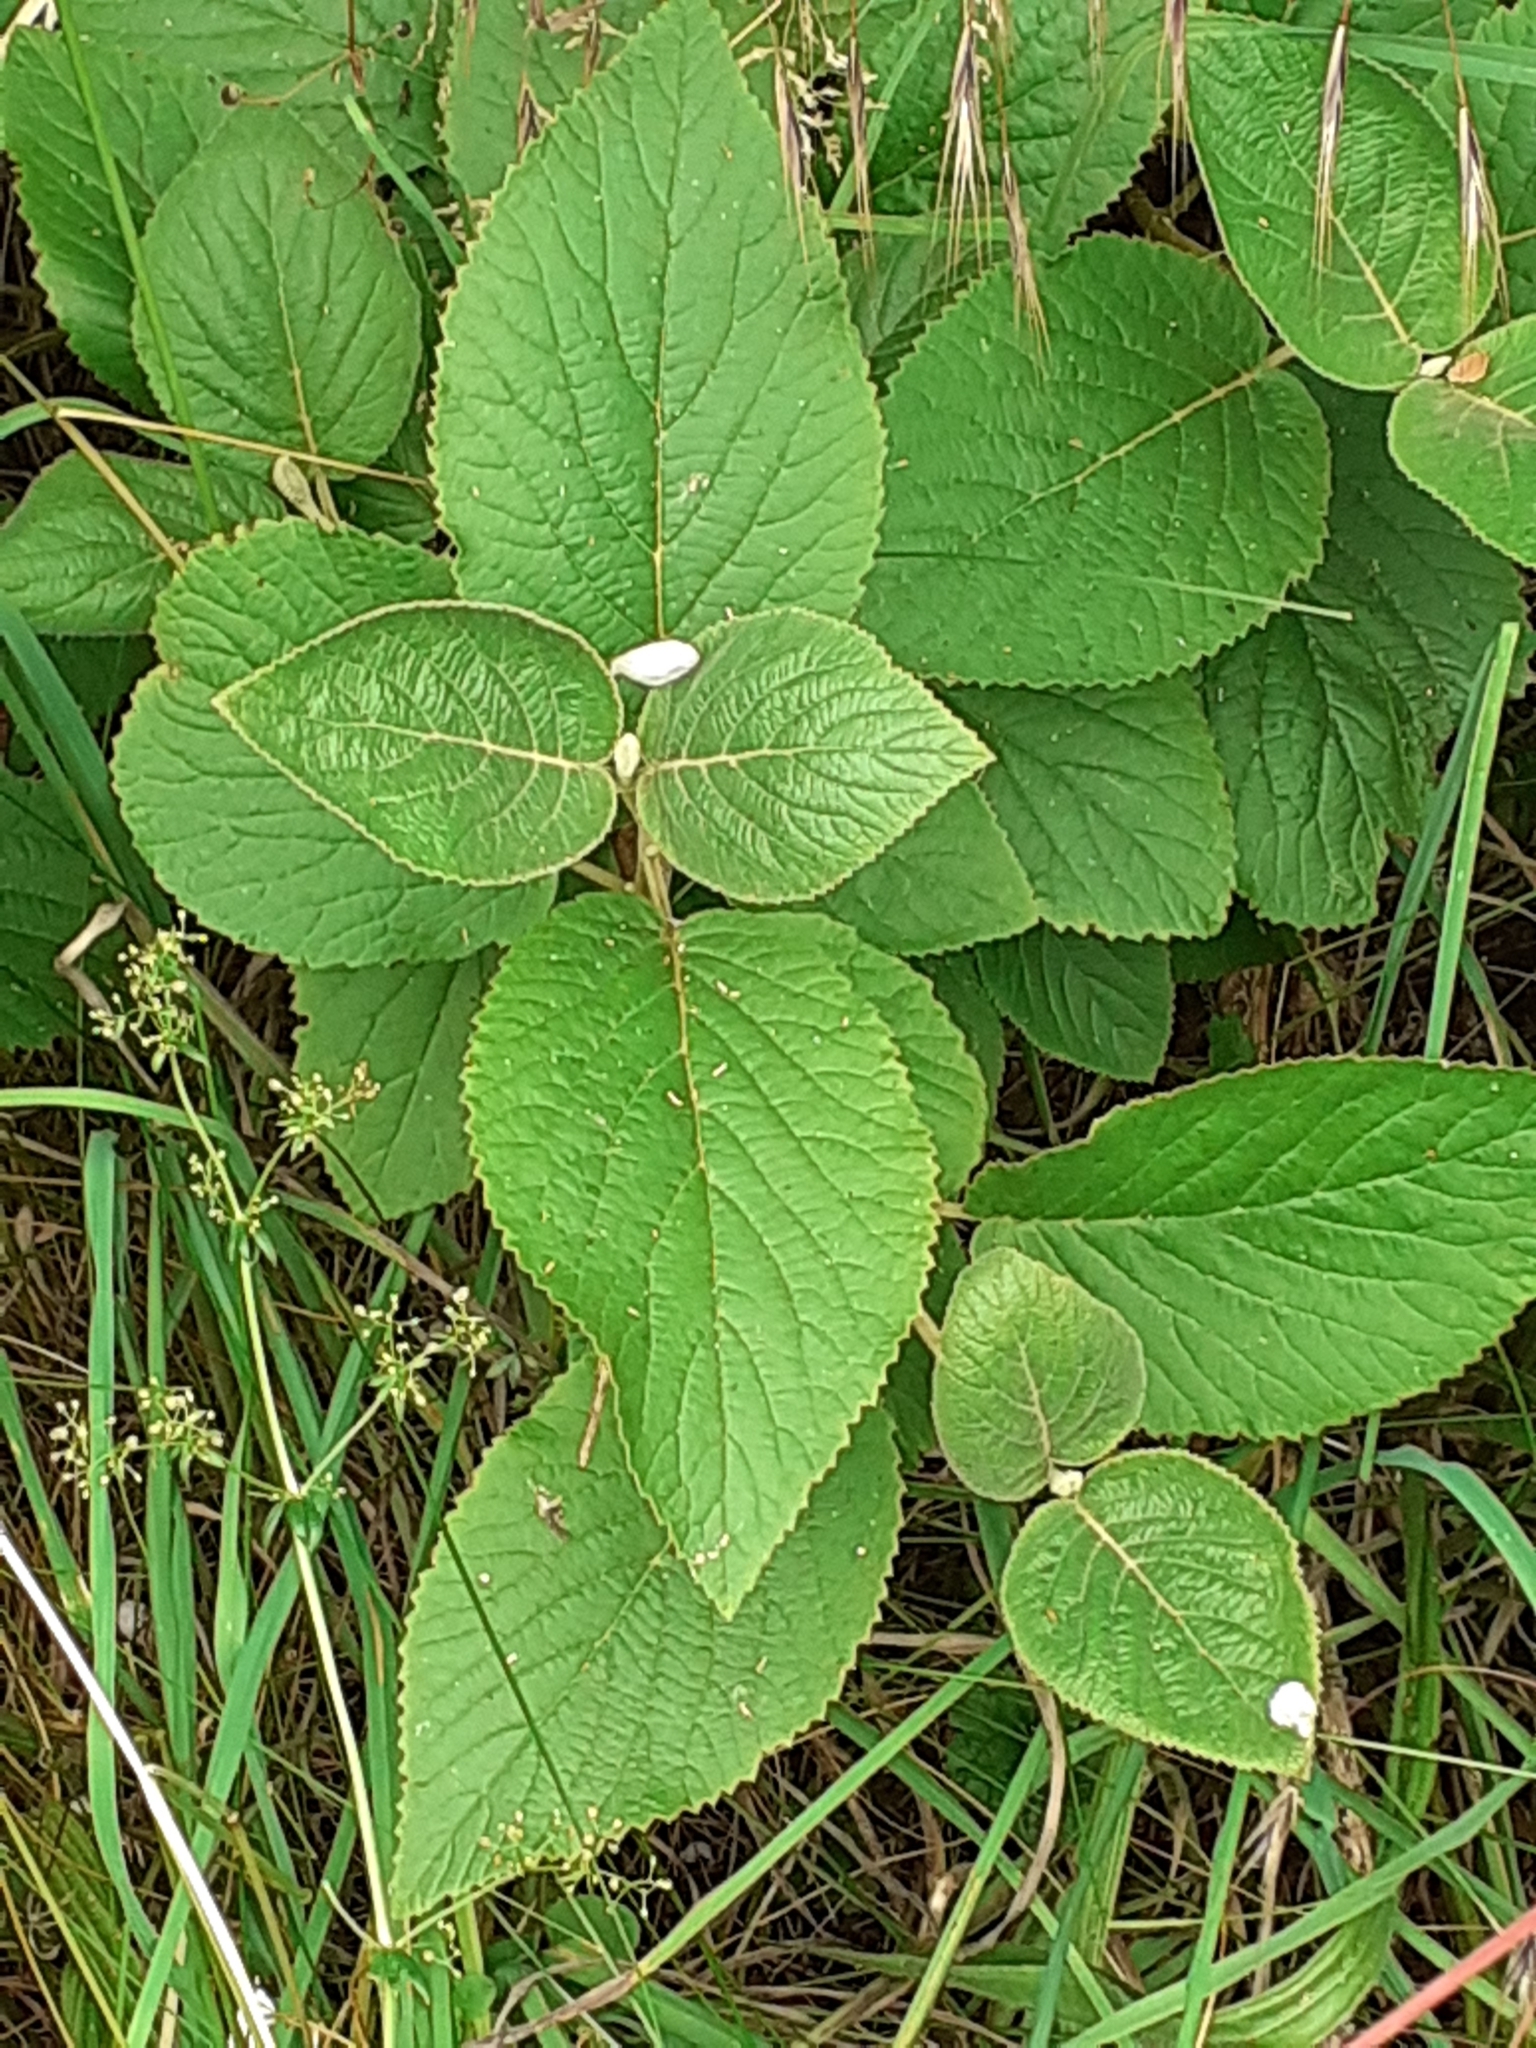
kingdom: Plantae
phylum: Tracheophyta
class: Magnoliopsida
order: Dipsacales
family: Viburnaceae
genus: Viburnum
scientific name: Viburnum lantana
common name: Wayfaring tree
